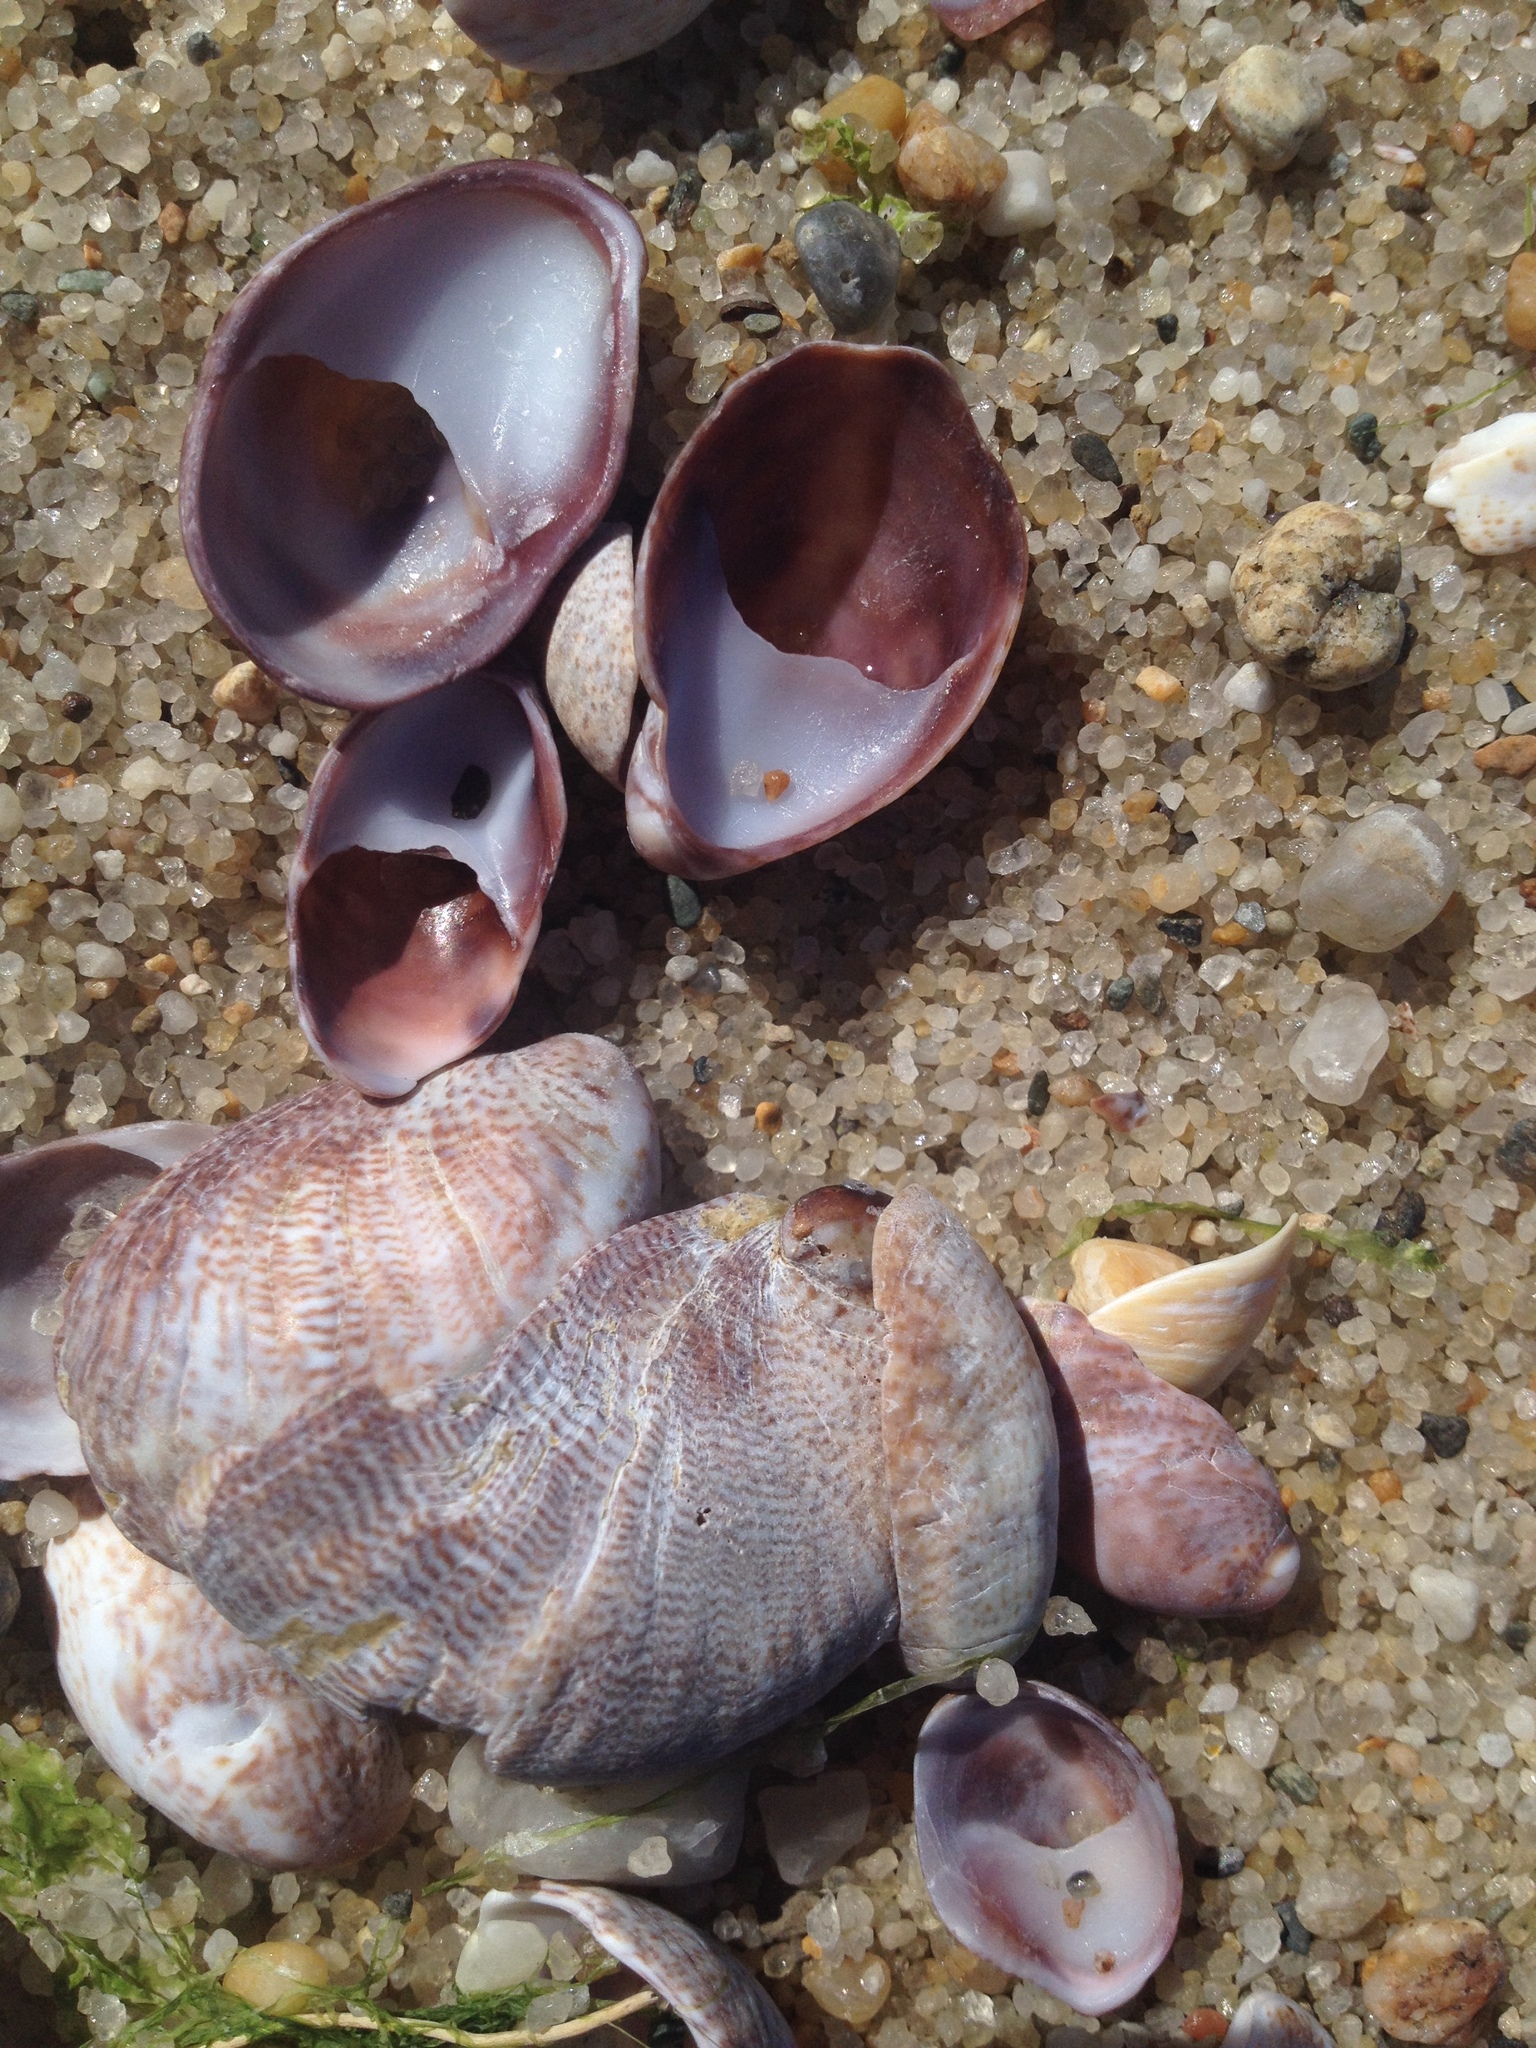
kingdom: Animalia
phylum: Mollusca
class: Gastropoda
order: Littorinimorpha
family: Calyptraeidae
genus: Crepidula
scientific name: Crepidula fornicata
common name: Slipper limpet
